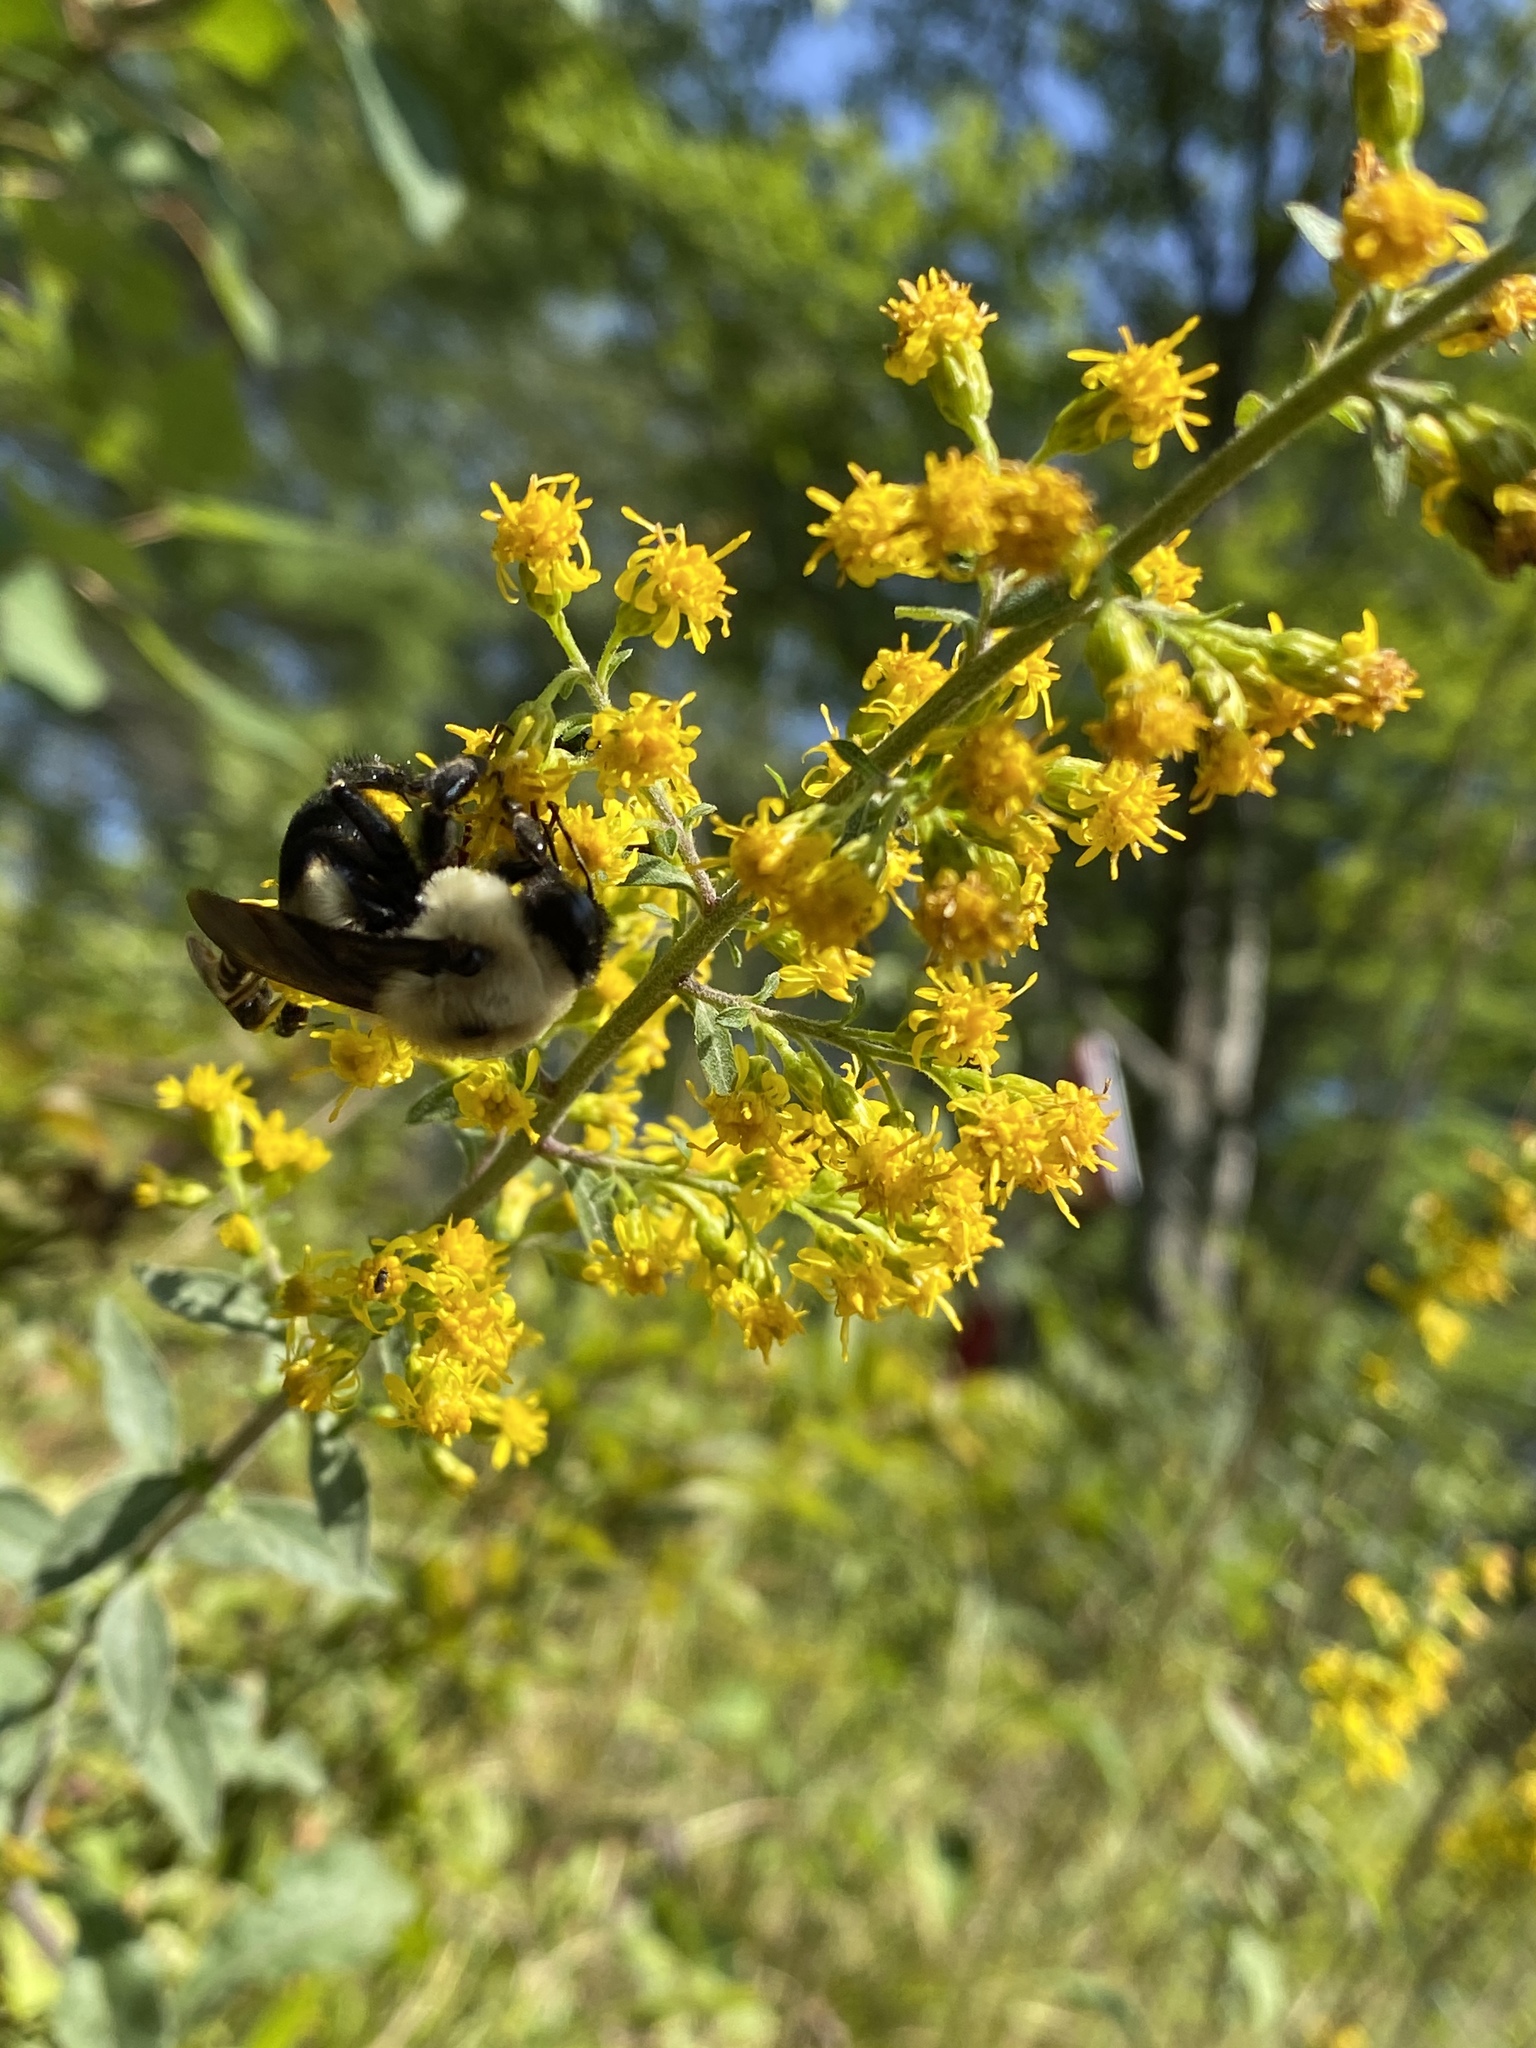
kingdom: Animalia
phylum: Arthropoda
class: Insecta
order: Hymenoptera
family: Apidae
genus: Bombus
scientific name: Bombus griseocollis
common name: Brown-belted bumble bee
